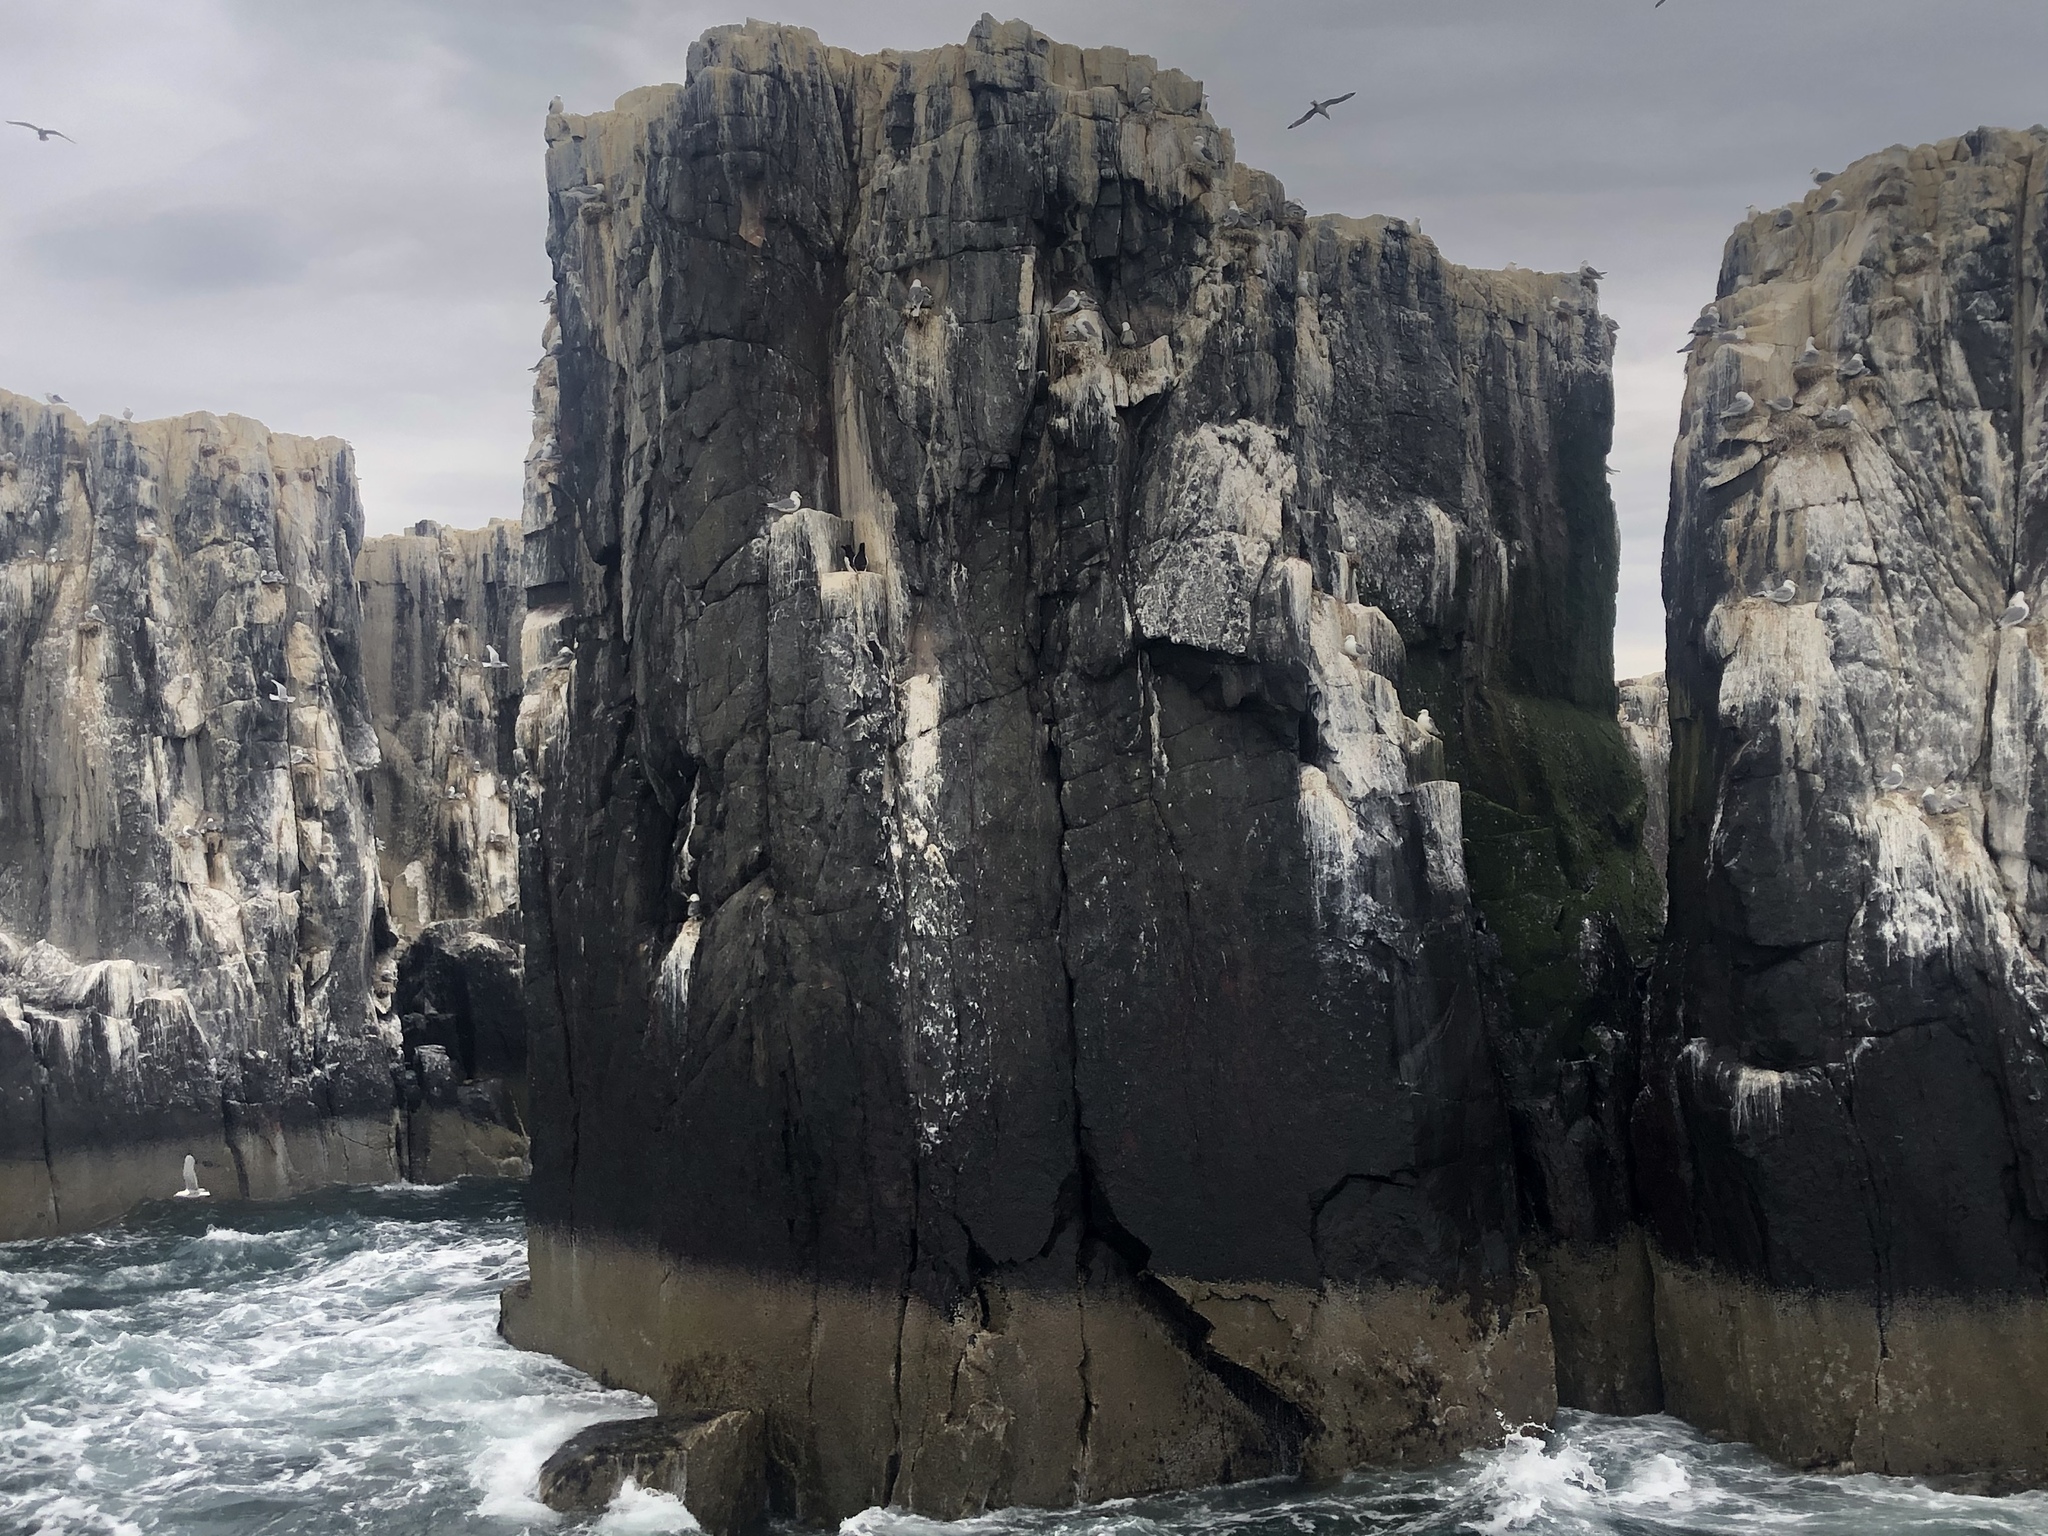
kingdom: Animalia
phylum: Chordata
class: Aves
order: Charadriiformes
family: Alcidae
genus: Alca
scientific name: Alca torda
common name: Razorbill
